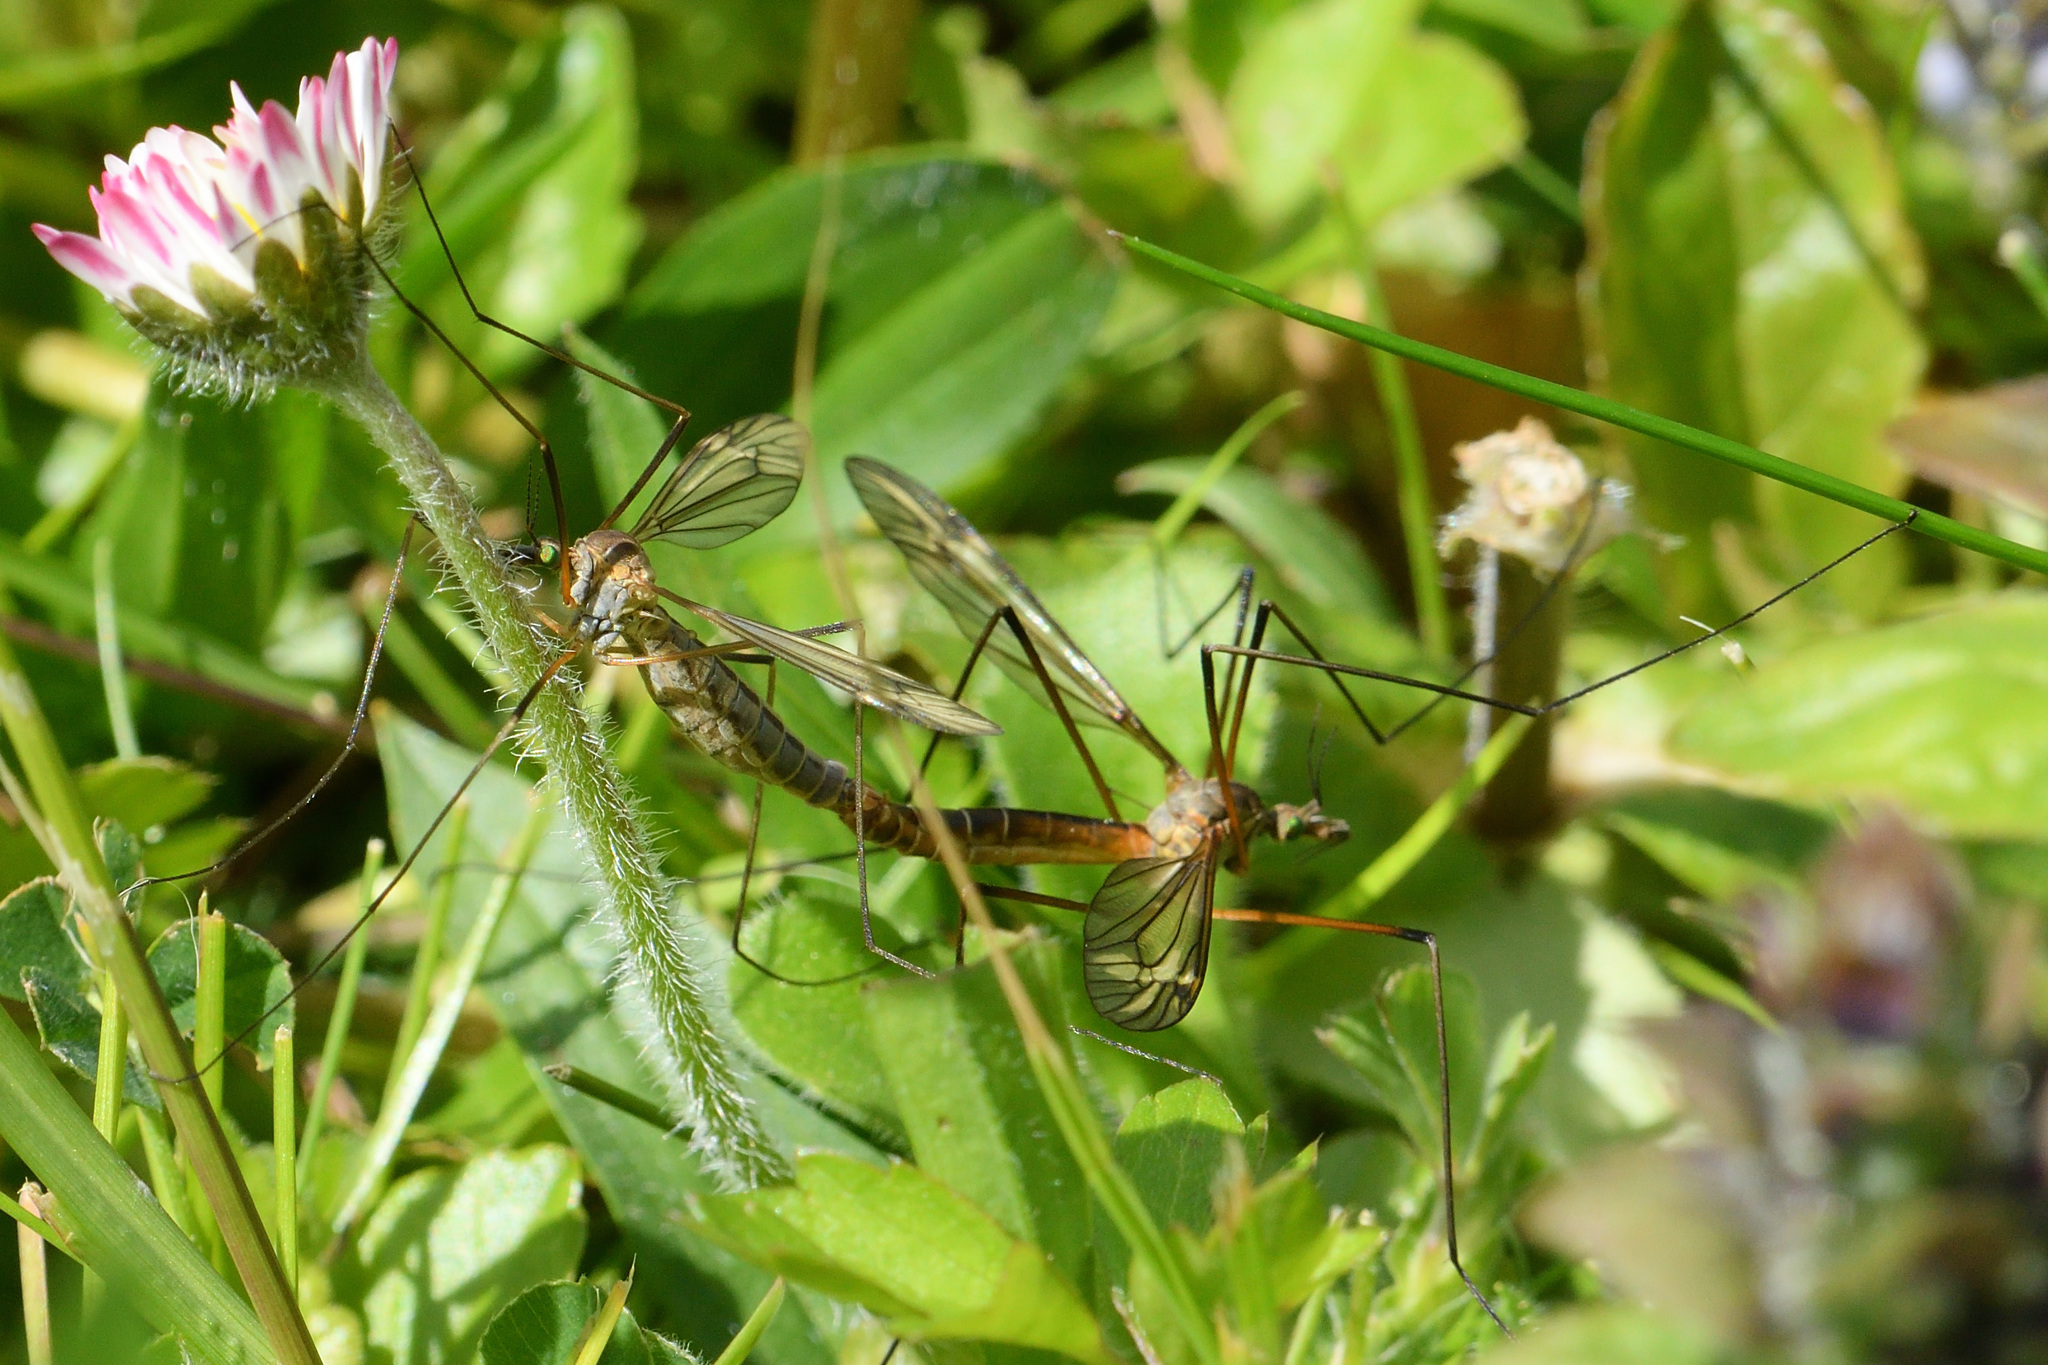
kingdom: Animalia
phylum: Arthropoda
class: Insecta
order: Diptera
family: Tipulidae
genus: Tipula
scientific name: Tipula vernalis
